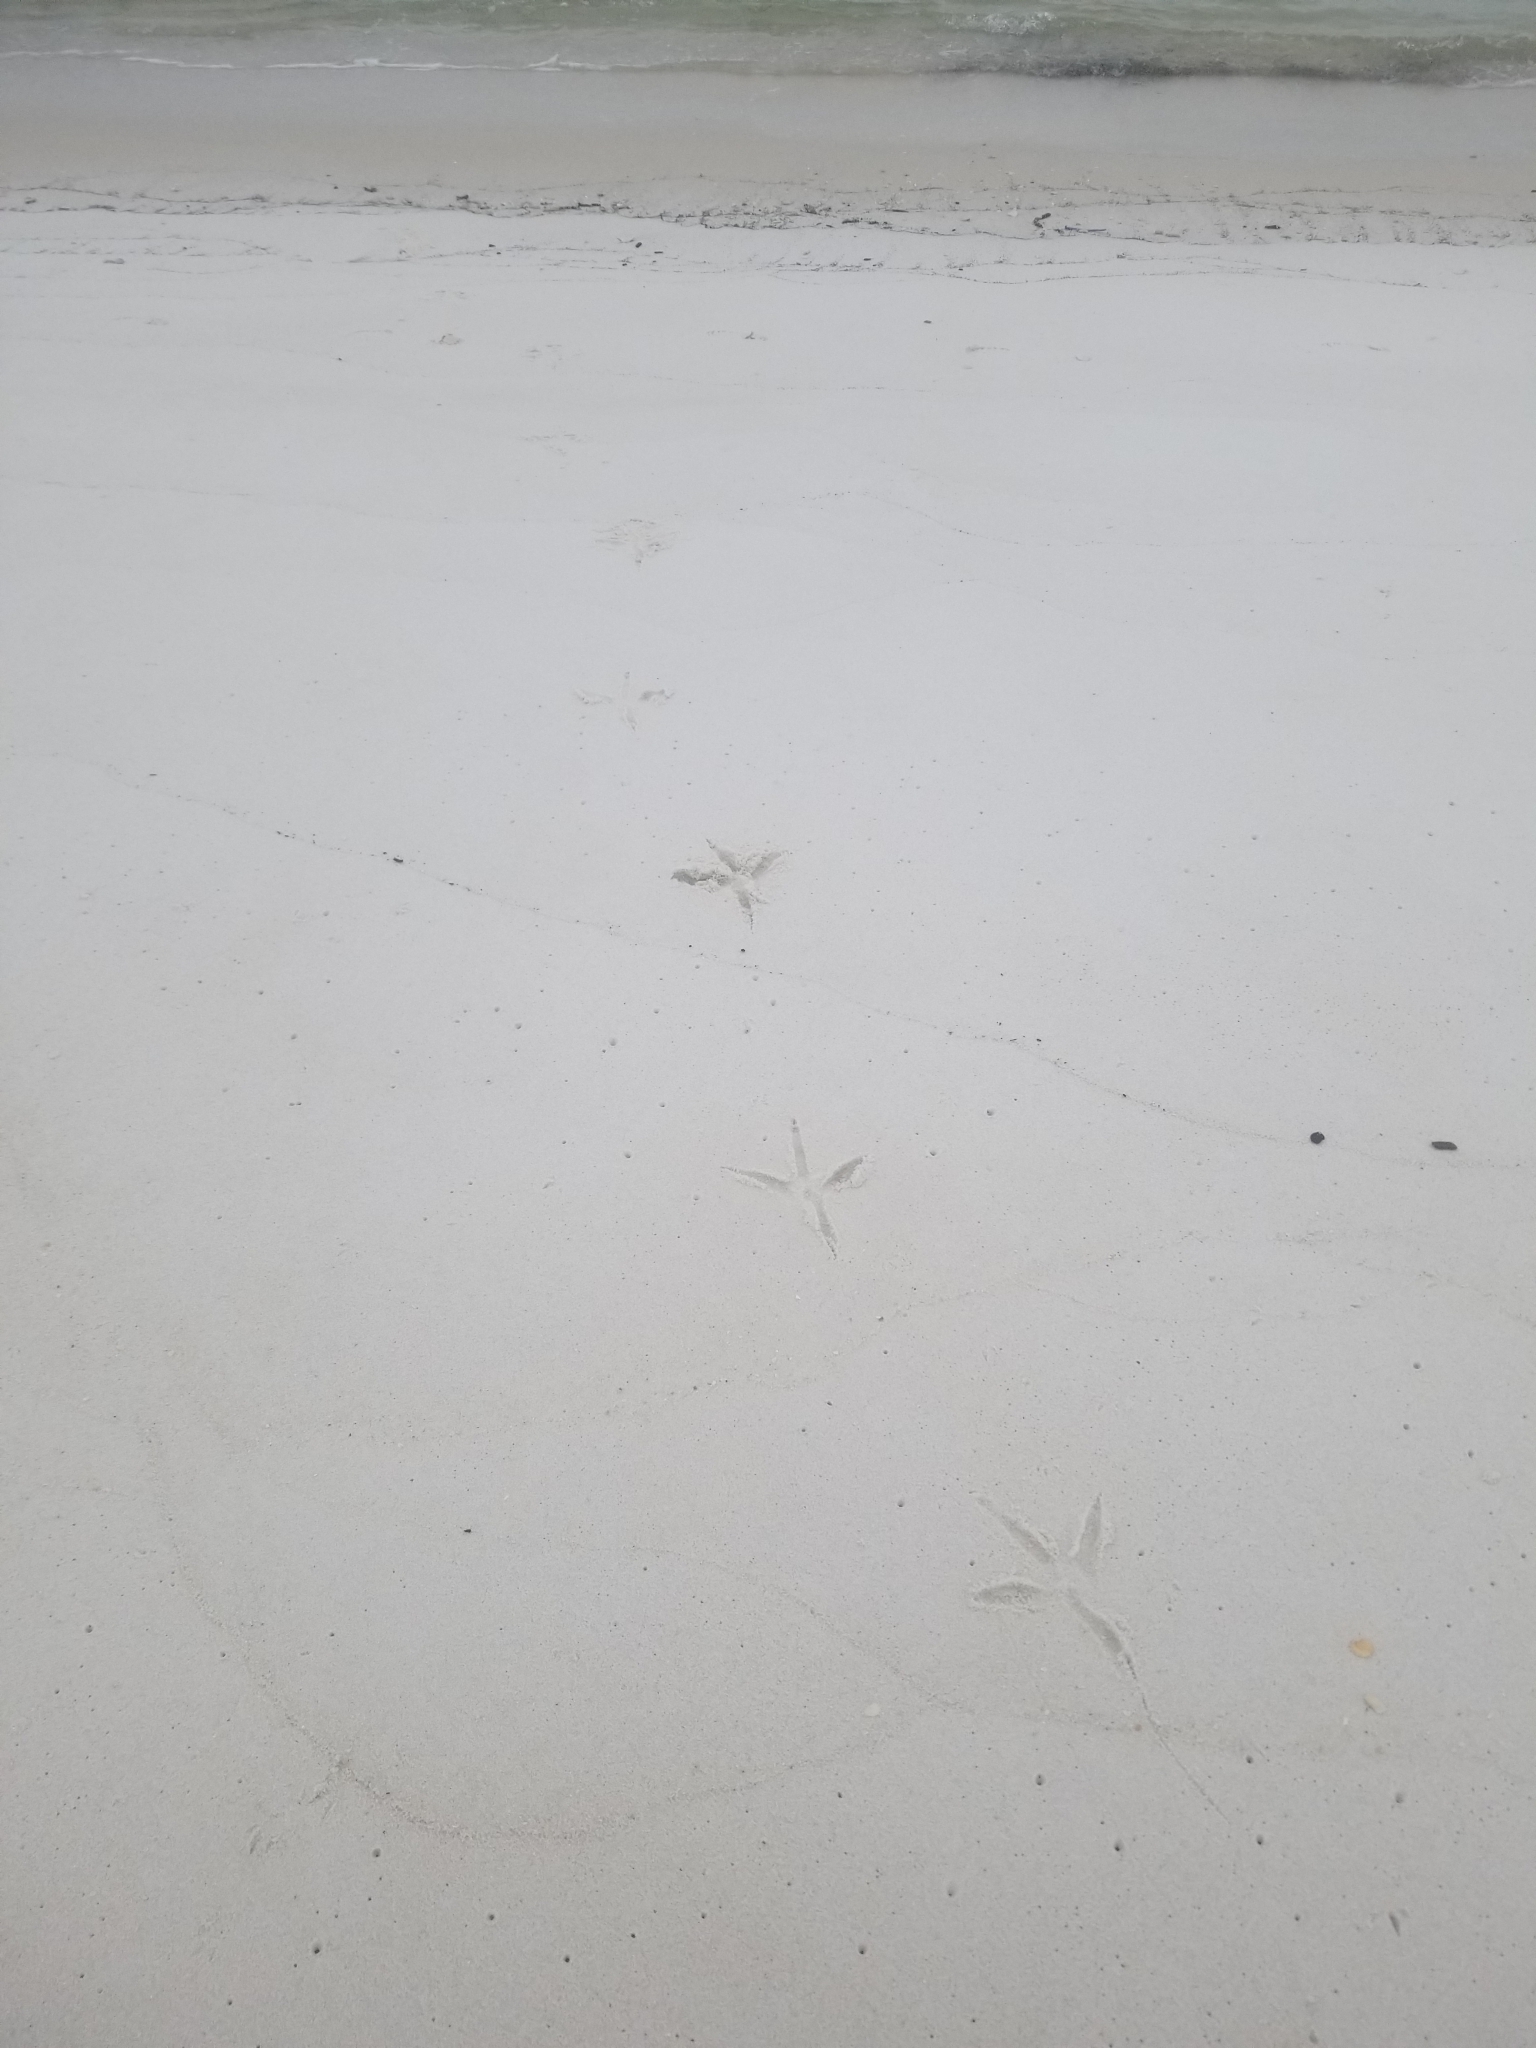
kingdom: Animalia
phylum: Chordata
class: Aves
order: Pelecaniformes
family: Ardeidae
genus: Ardea
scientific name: Ardea herodias
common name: Great blue heron
